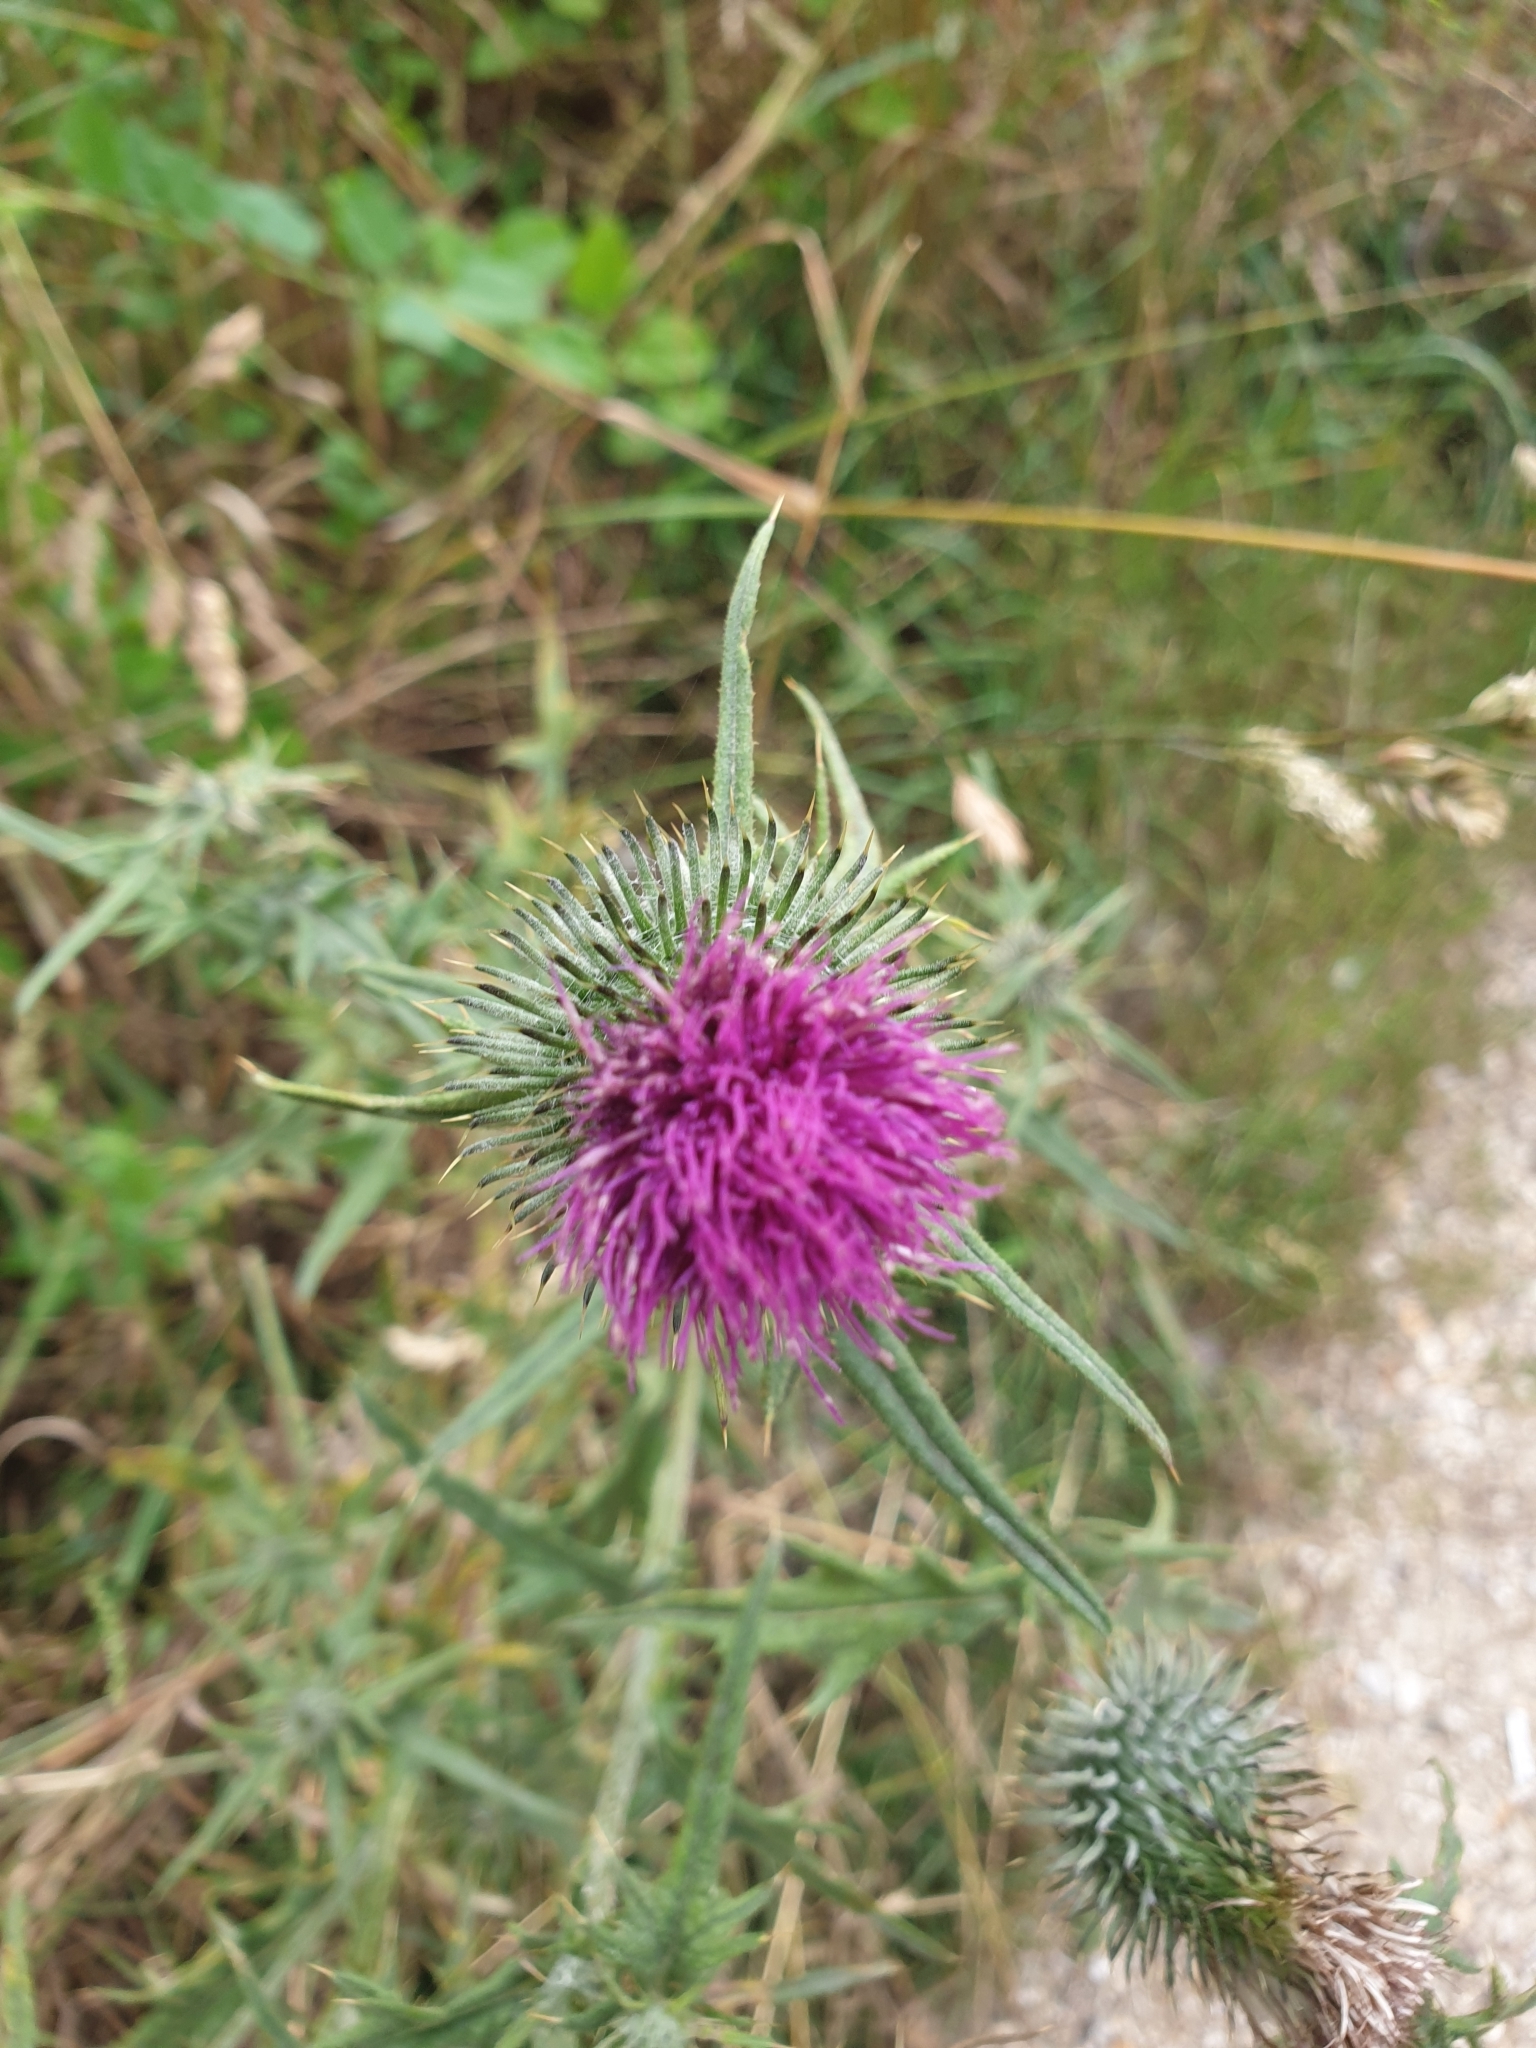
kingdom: Plantae
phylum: Tracheophyta
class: Magnoliopsida
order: Asterales
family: Asteraceae
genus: Cirsium
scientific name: Cirsium vulgare
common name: Bull thistle
